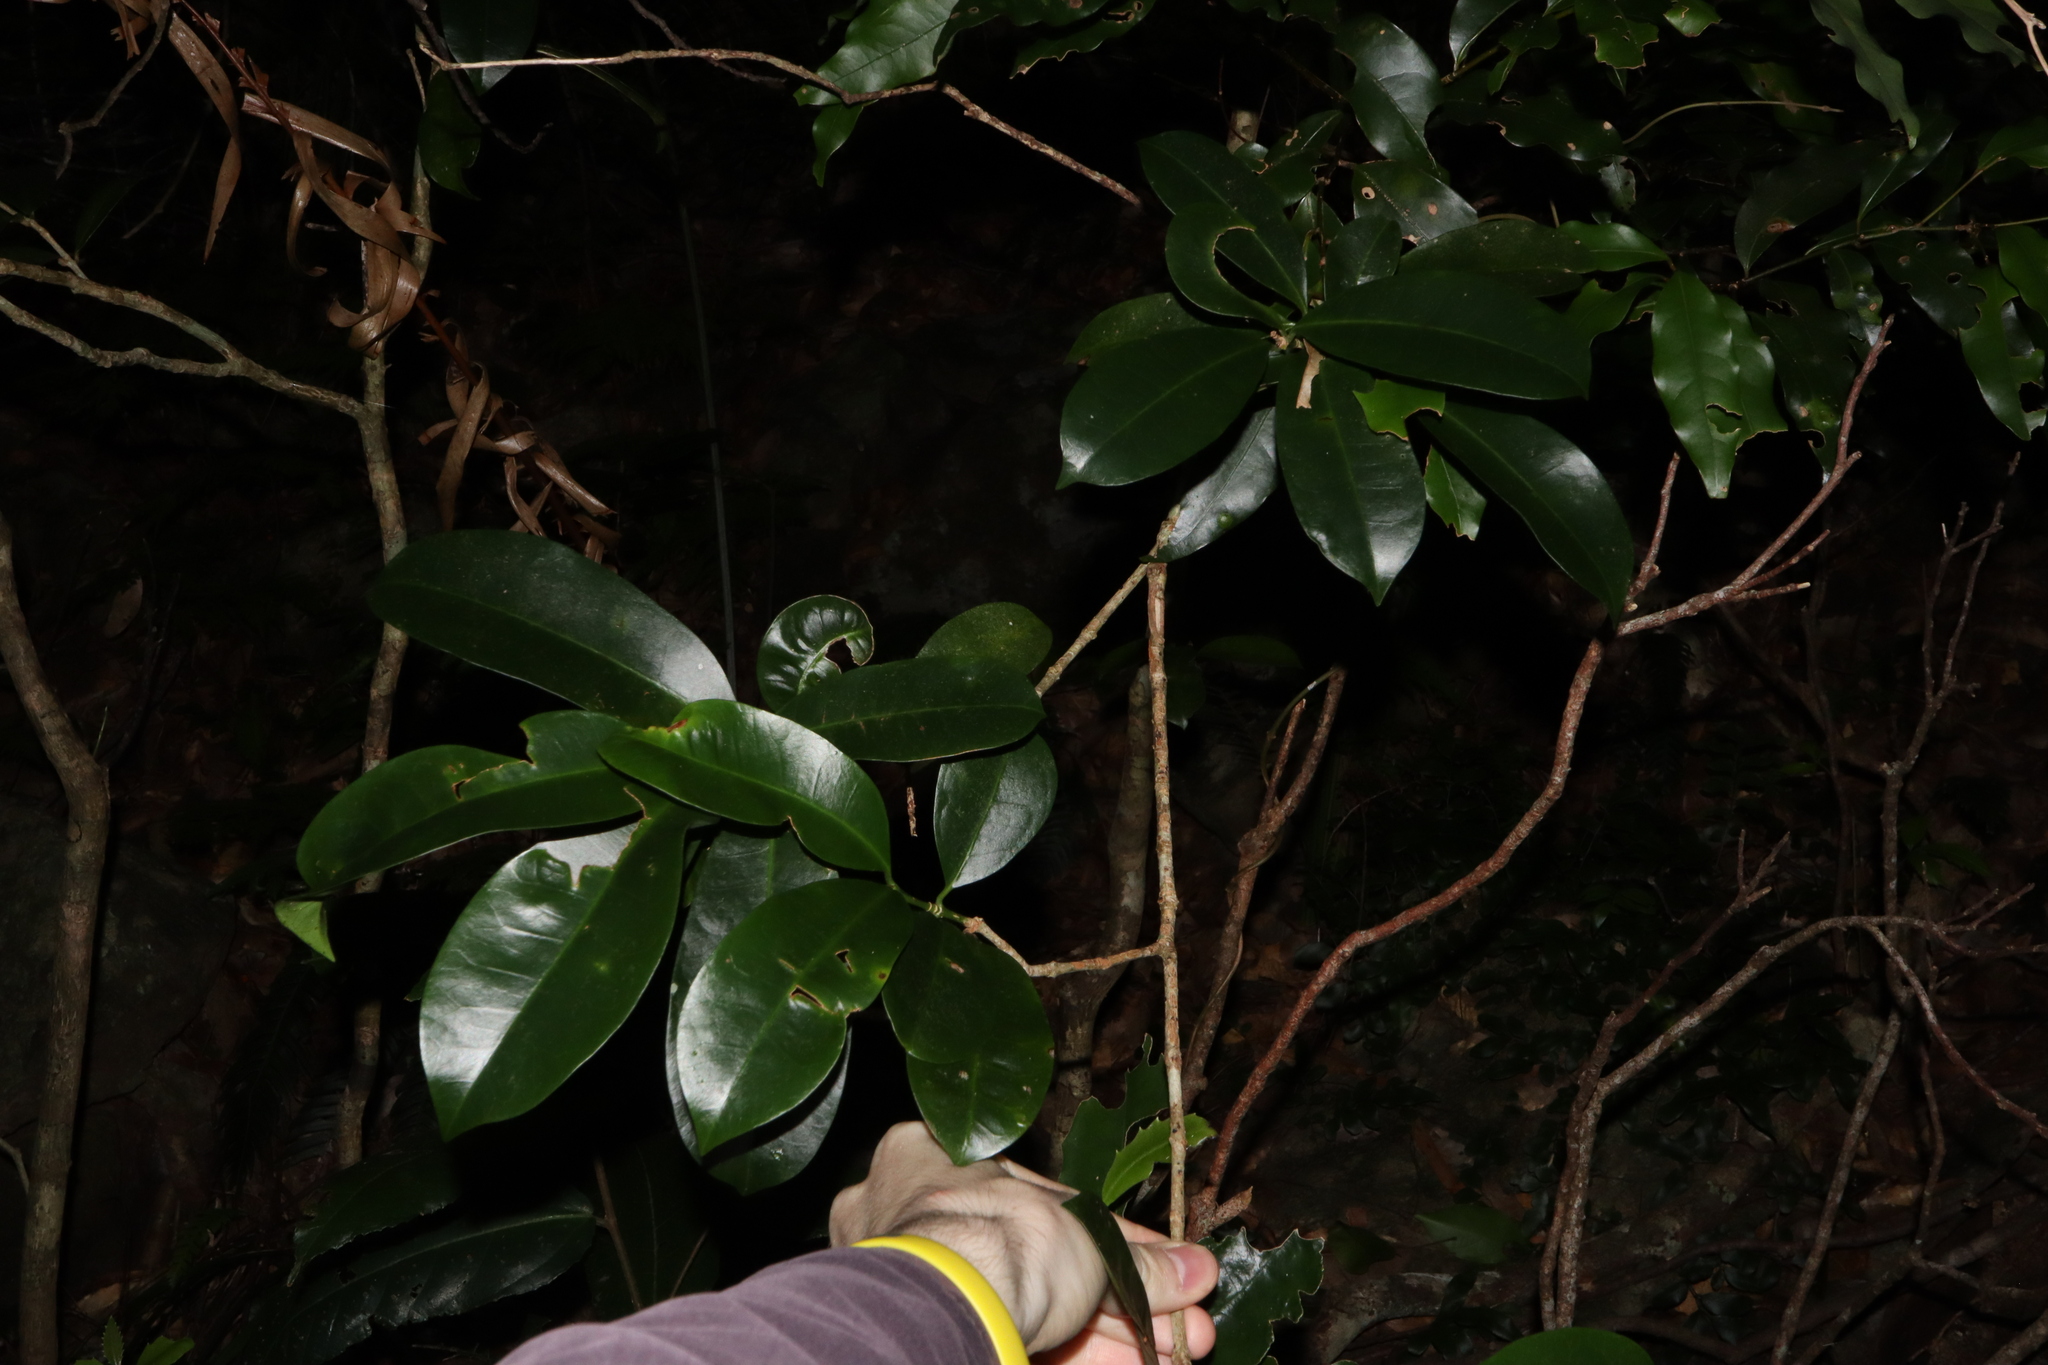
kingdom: Plantae
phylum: Tracheophyta
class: Magnoliopsida
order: Malpighiales
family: Euphorbiaceae
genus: Baloghia
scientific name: Baloghia inophylla
